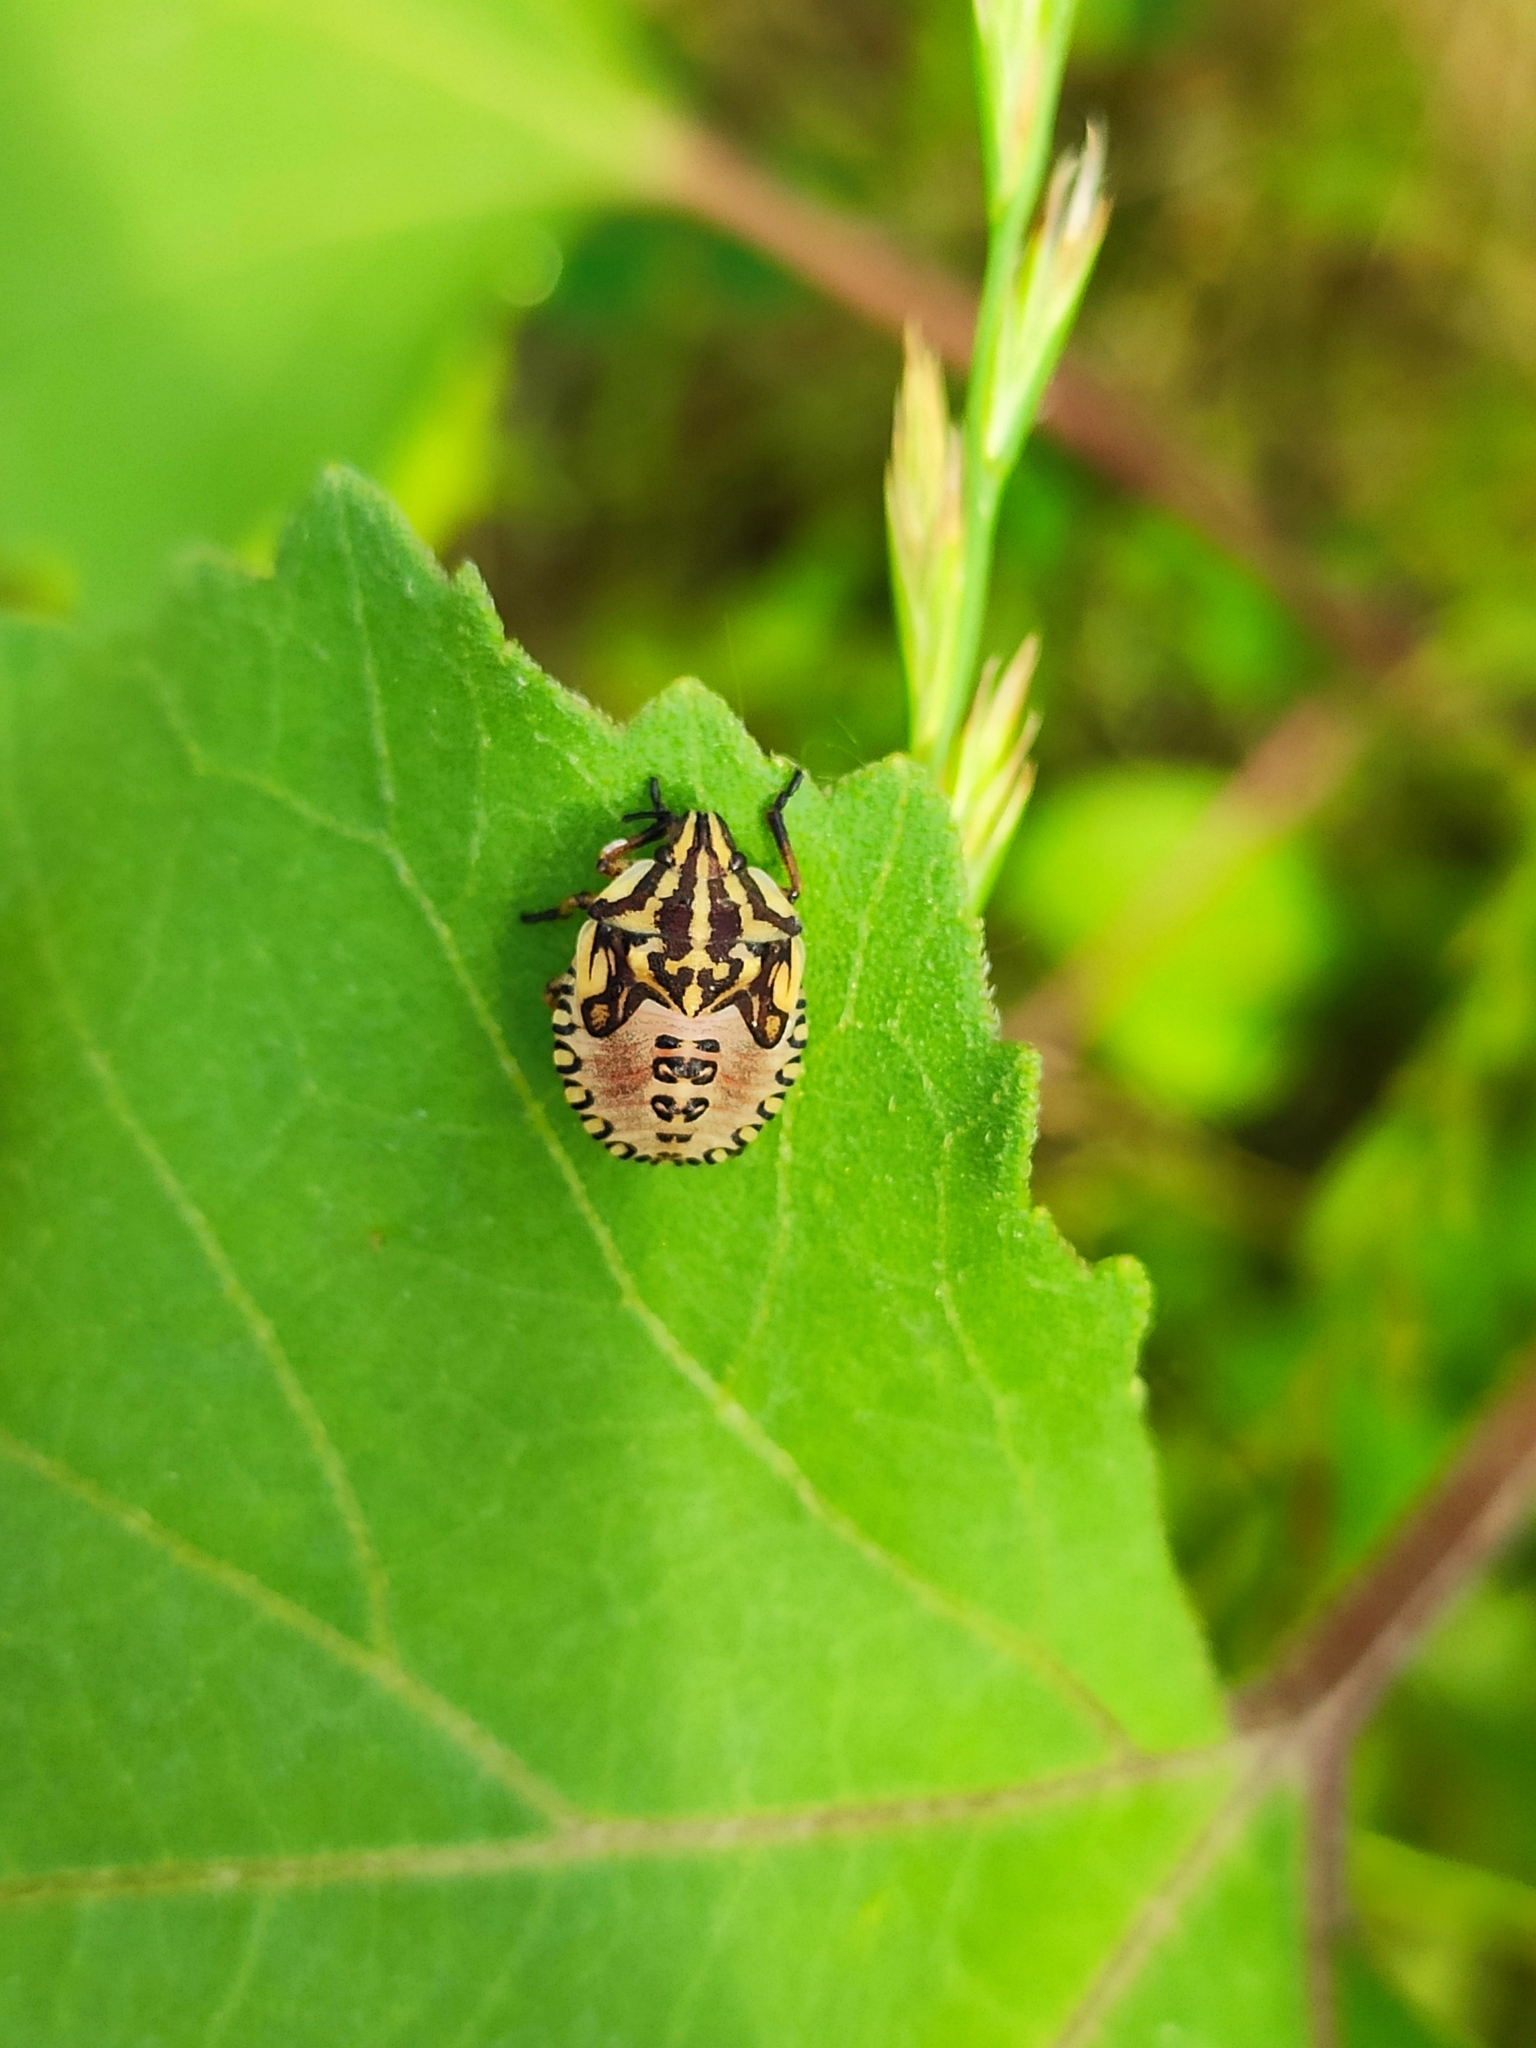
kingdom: Animalia
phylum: Arthropoda
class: Insecta
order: Hemiptera
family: Pentatomidae
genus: Carpocoris
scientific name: Carpocoris purpureipennis
